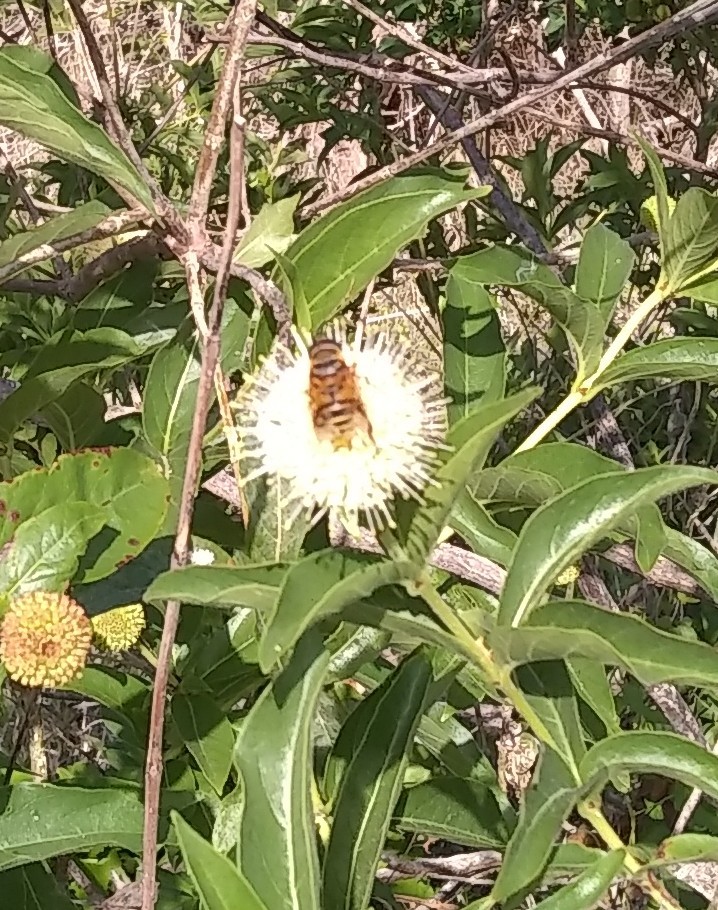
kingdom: Animalia
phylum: Arthropoda
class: Insecta
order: Diptera
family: Syrphidae
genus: Palpada
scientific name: Palpada vinetorum
